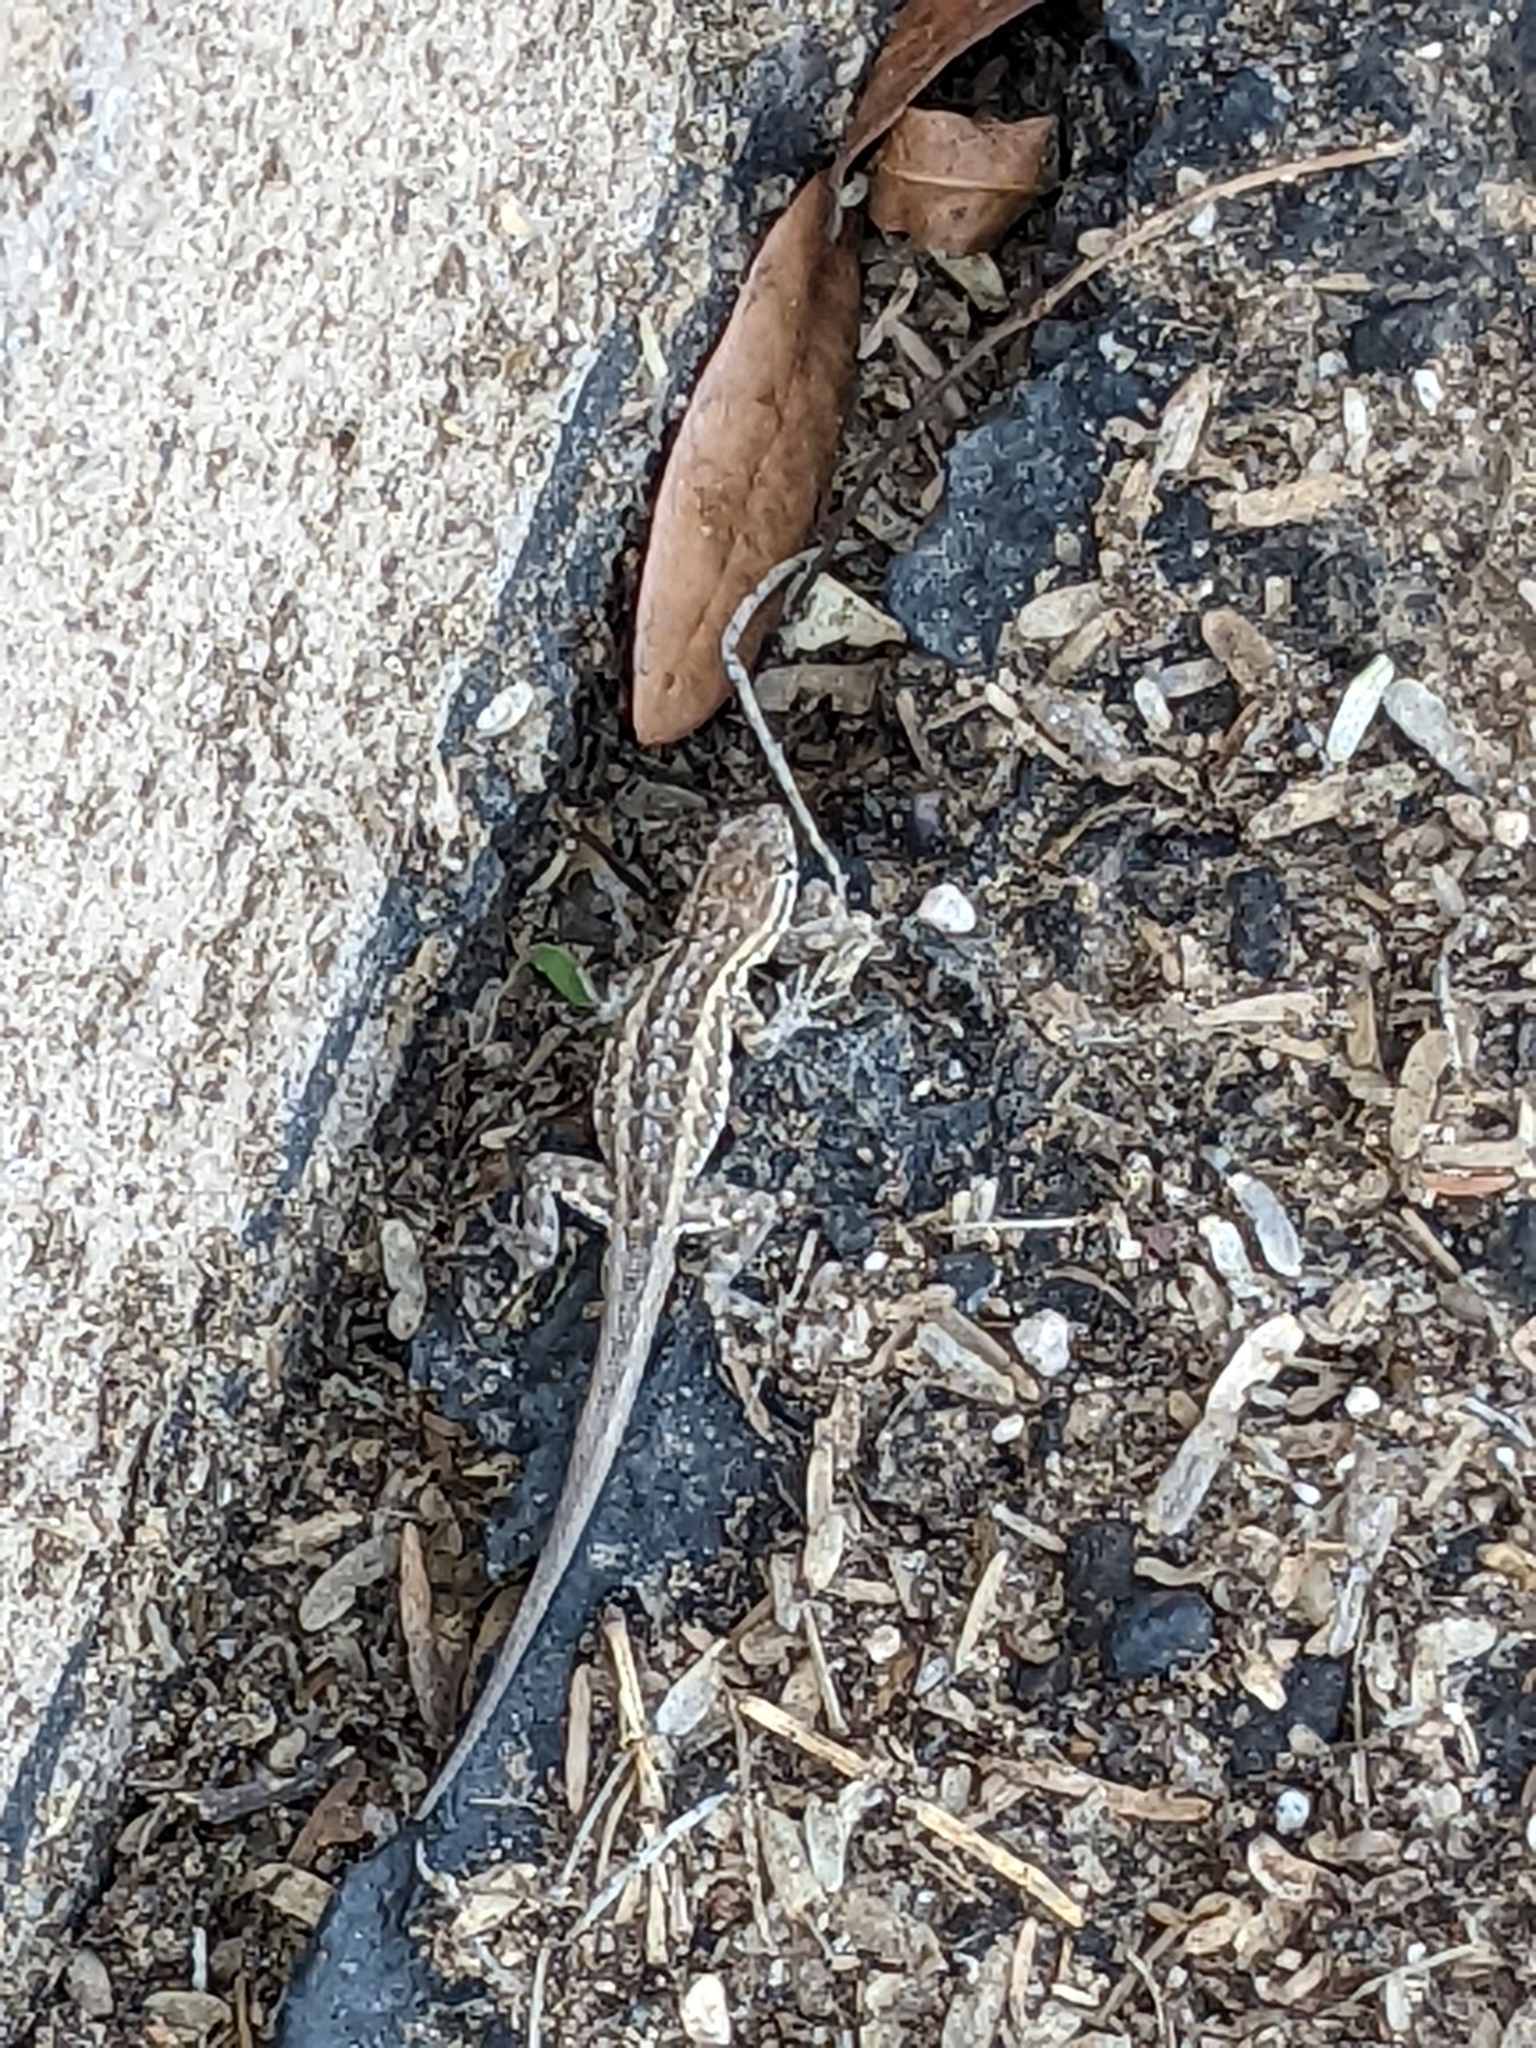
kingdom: Animalia
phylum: Chordata
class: Squamata
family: Phrynosomatidae
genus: Uta
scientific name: Uta stansburiana
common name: Side-blotched lizard
